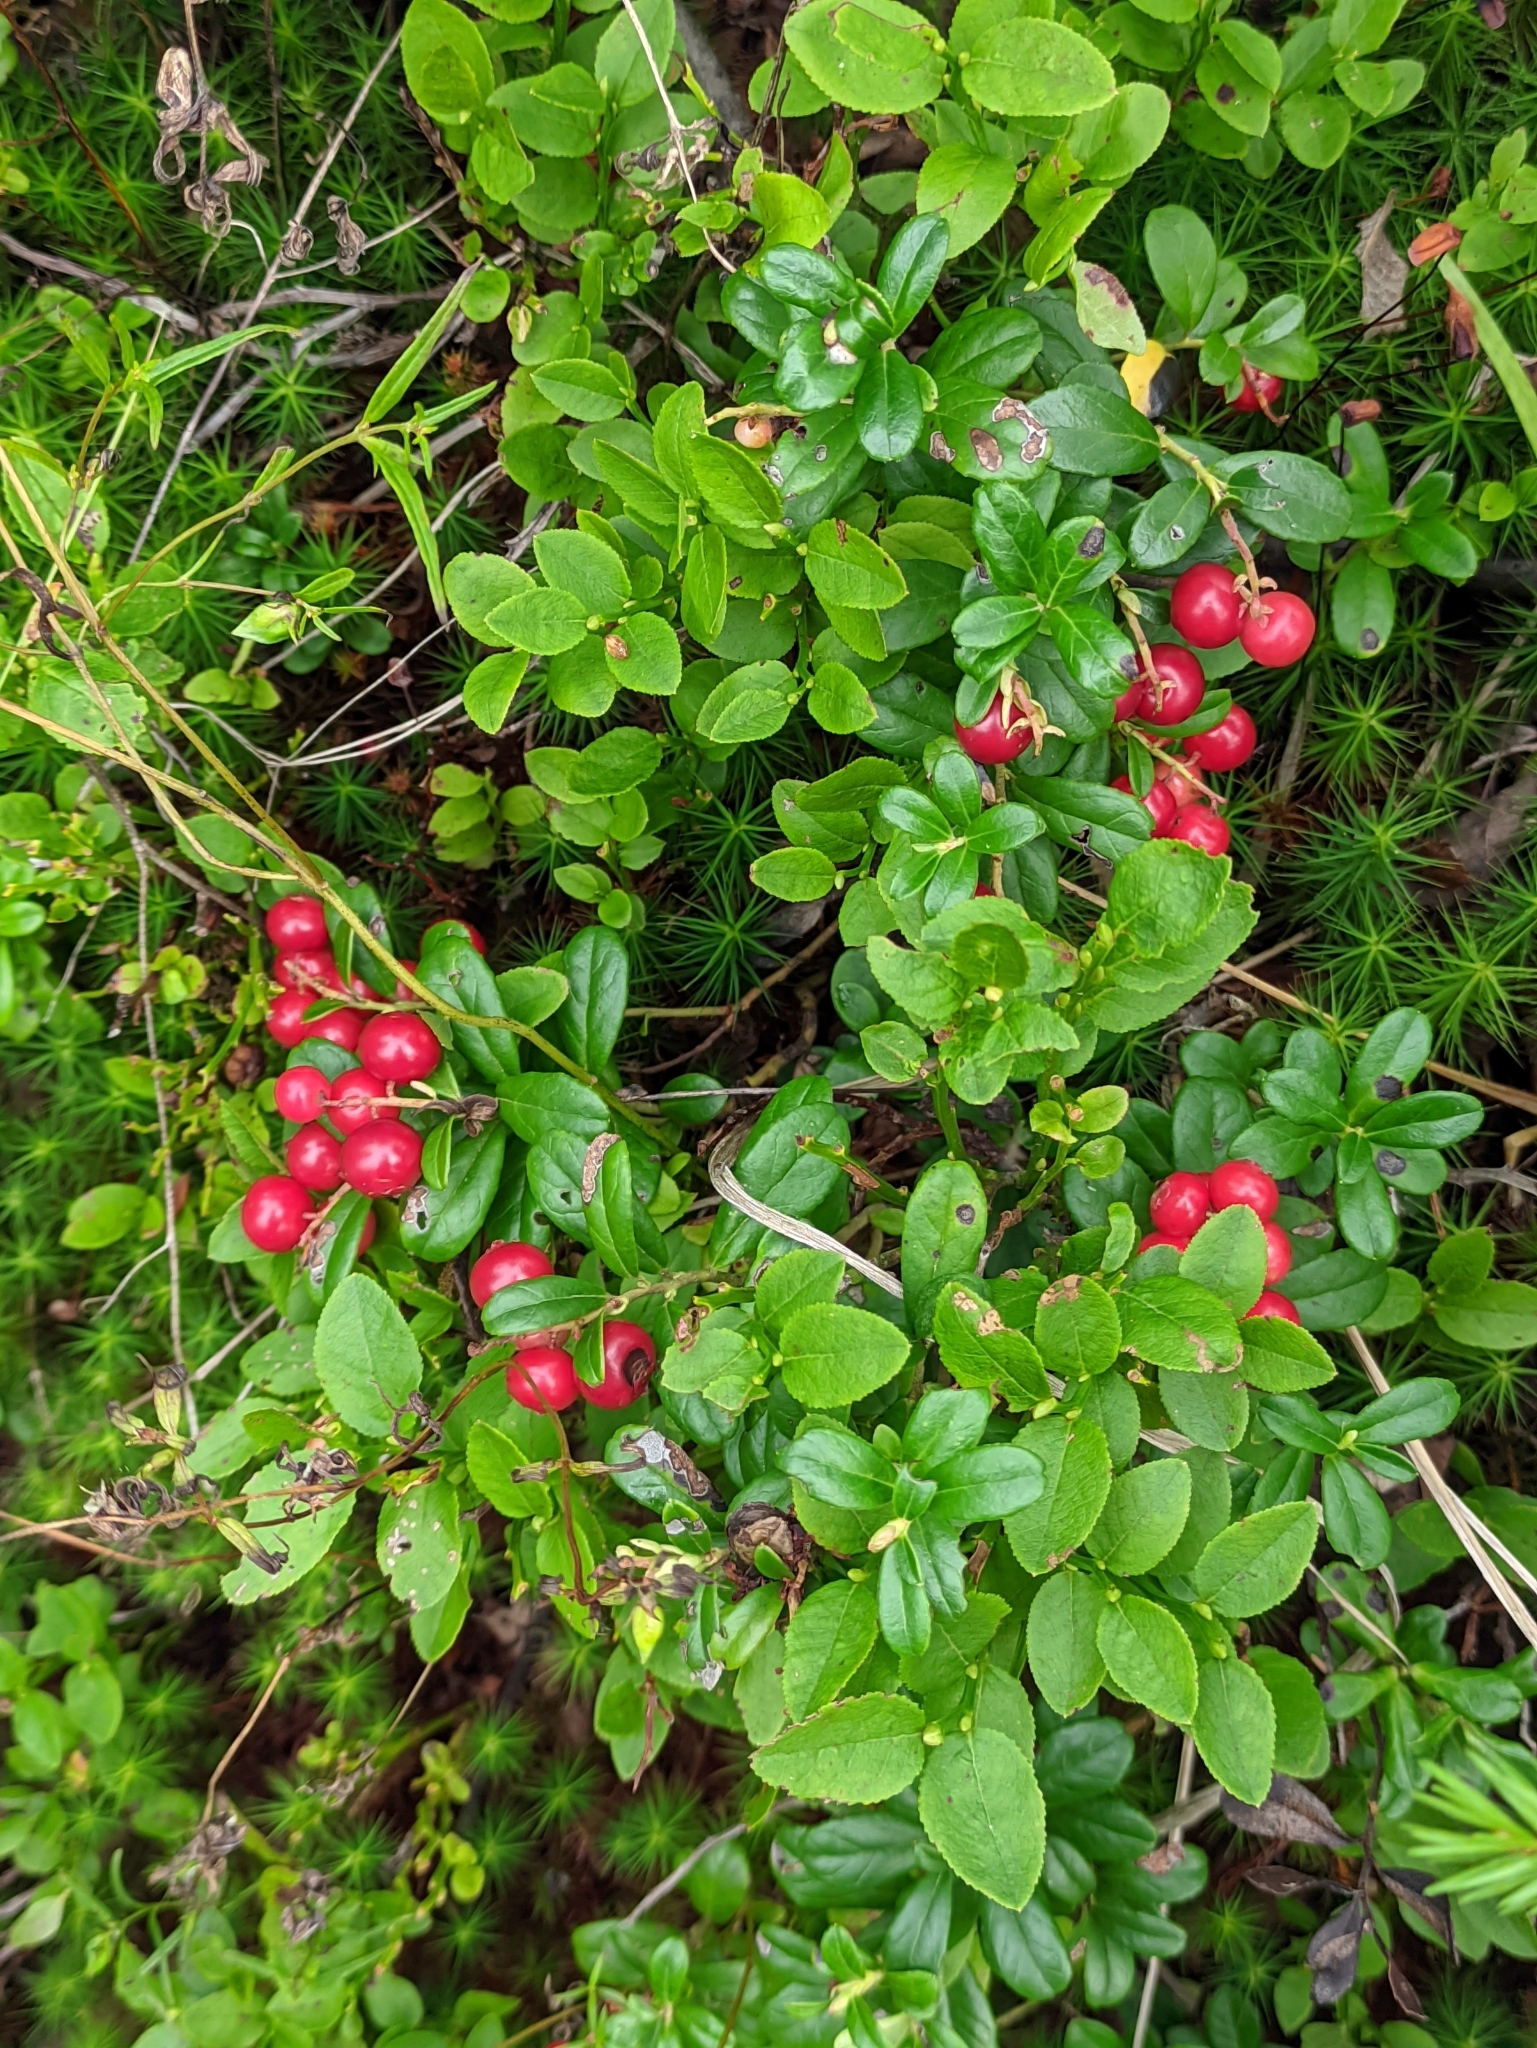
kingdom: Plantae
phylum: Tracheophyta
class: Magnoliopsida
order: Ericales
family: Ericaceae
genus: Vaccinium
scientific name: Vaccinium vitis-idaea
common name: Cowberry
